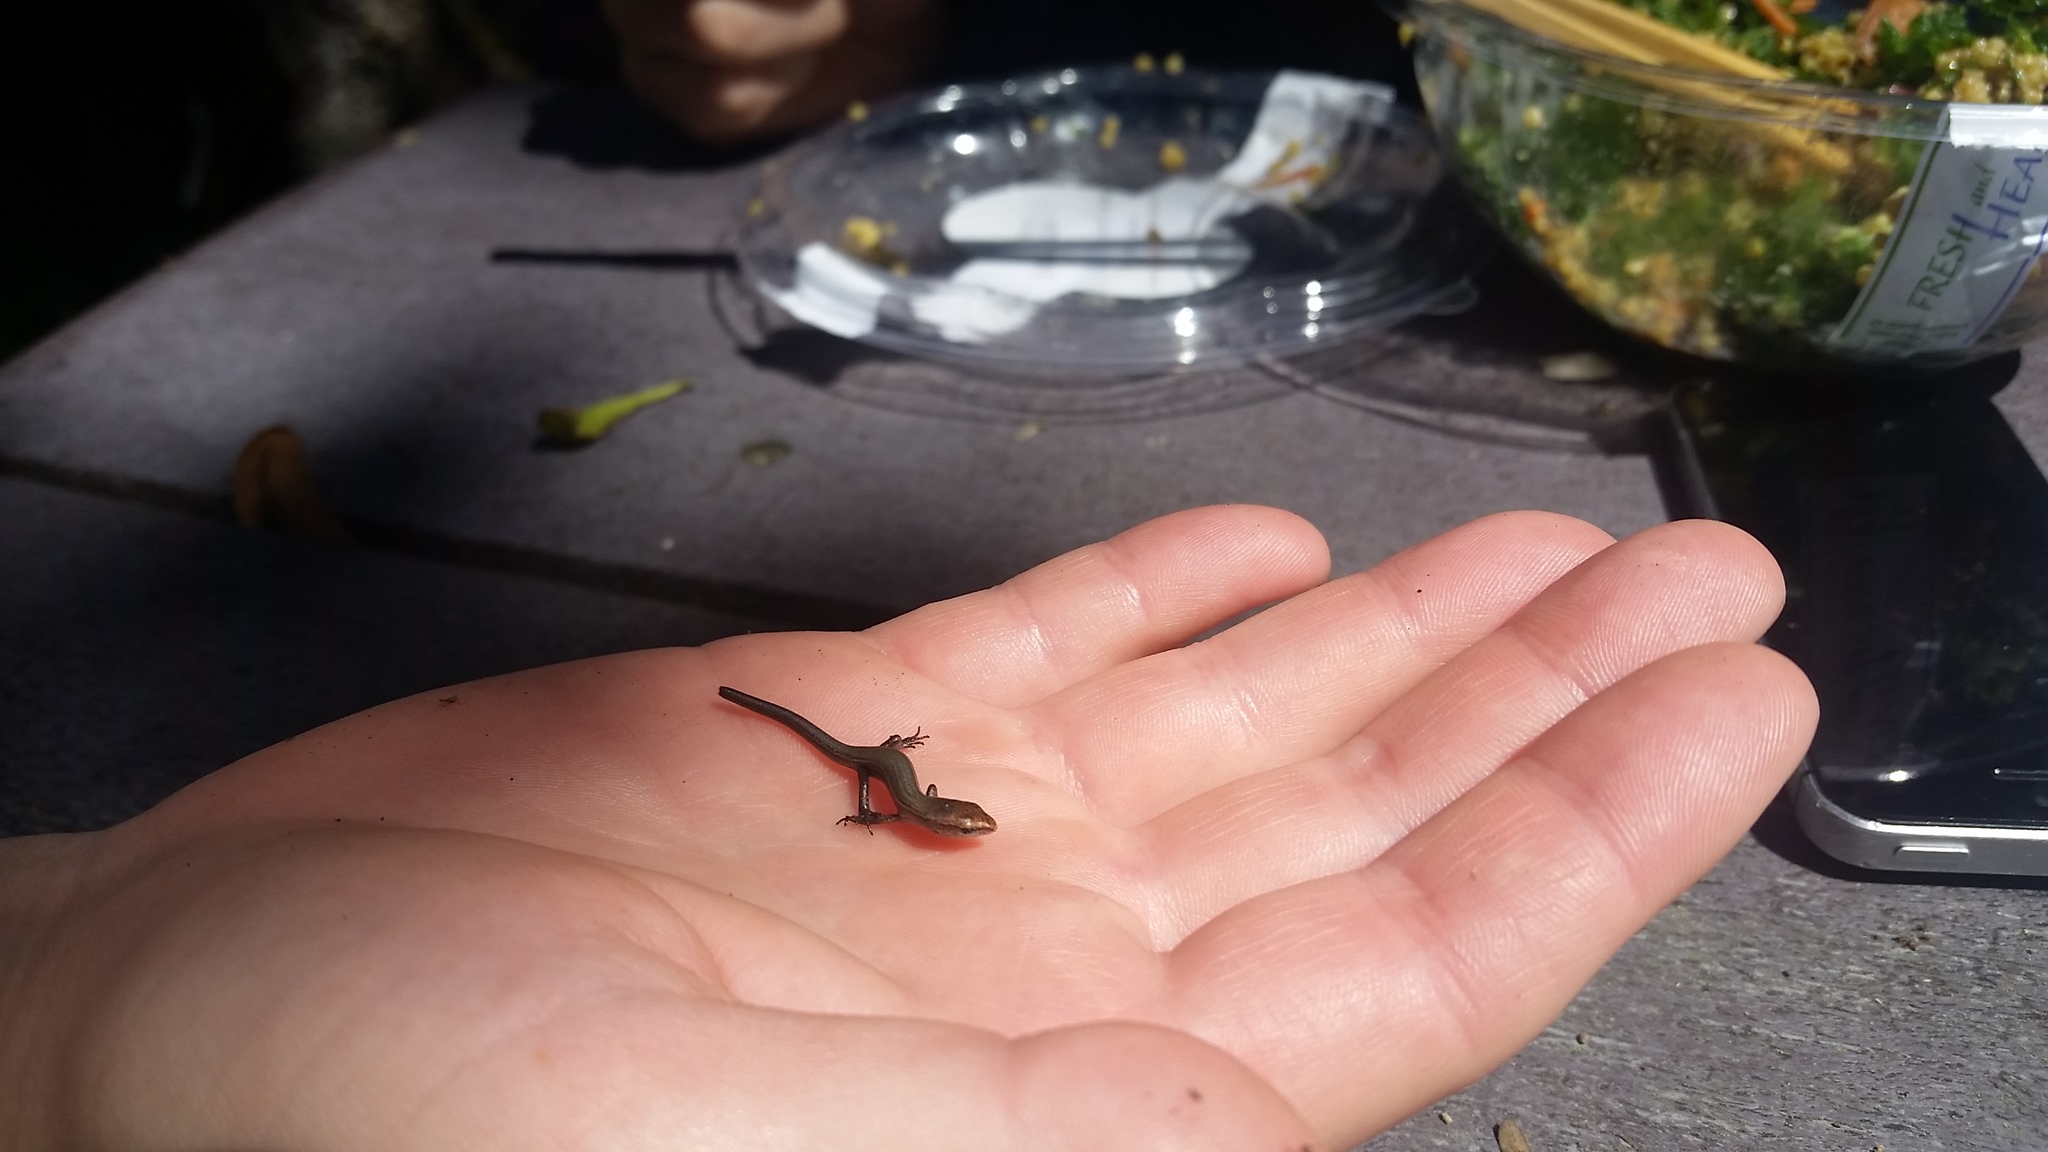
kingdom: Animalia
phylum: Chordata
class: Squamata
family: Scincidae
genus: Lampropholis
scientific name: Lampropholis delicata
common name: Plague skink
